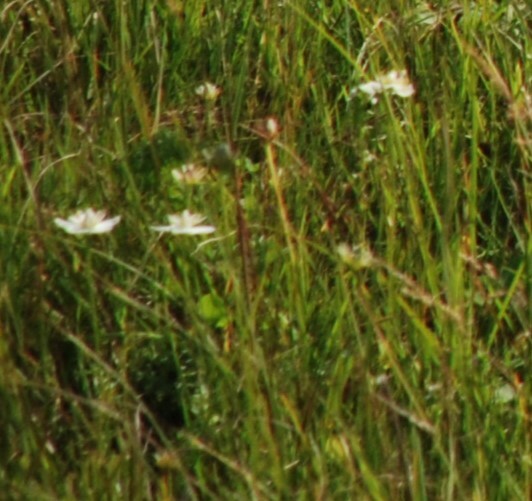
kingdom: Plantae
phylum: Tracheophyta
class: Magnoliopsida
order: Celastrales
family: Parnassiaceae
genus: Parnassia
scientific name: Parnassia palustris
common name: Grass-of-parnassus
